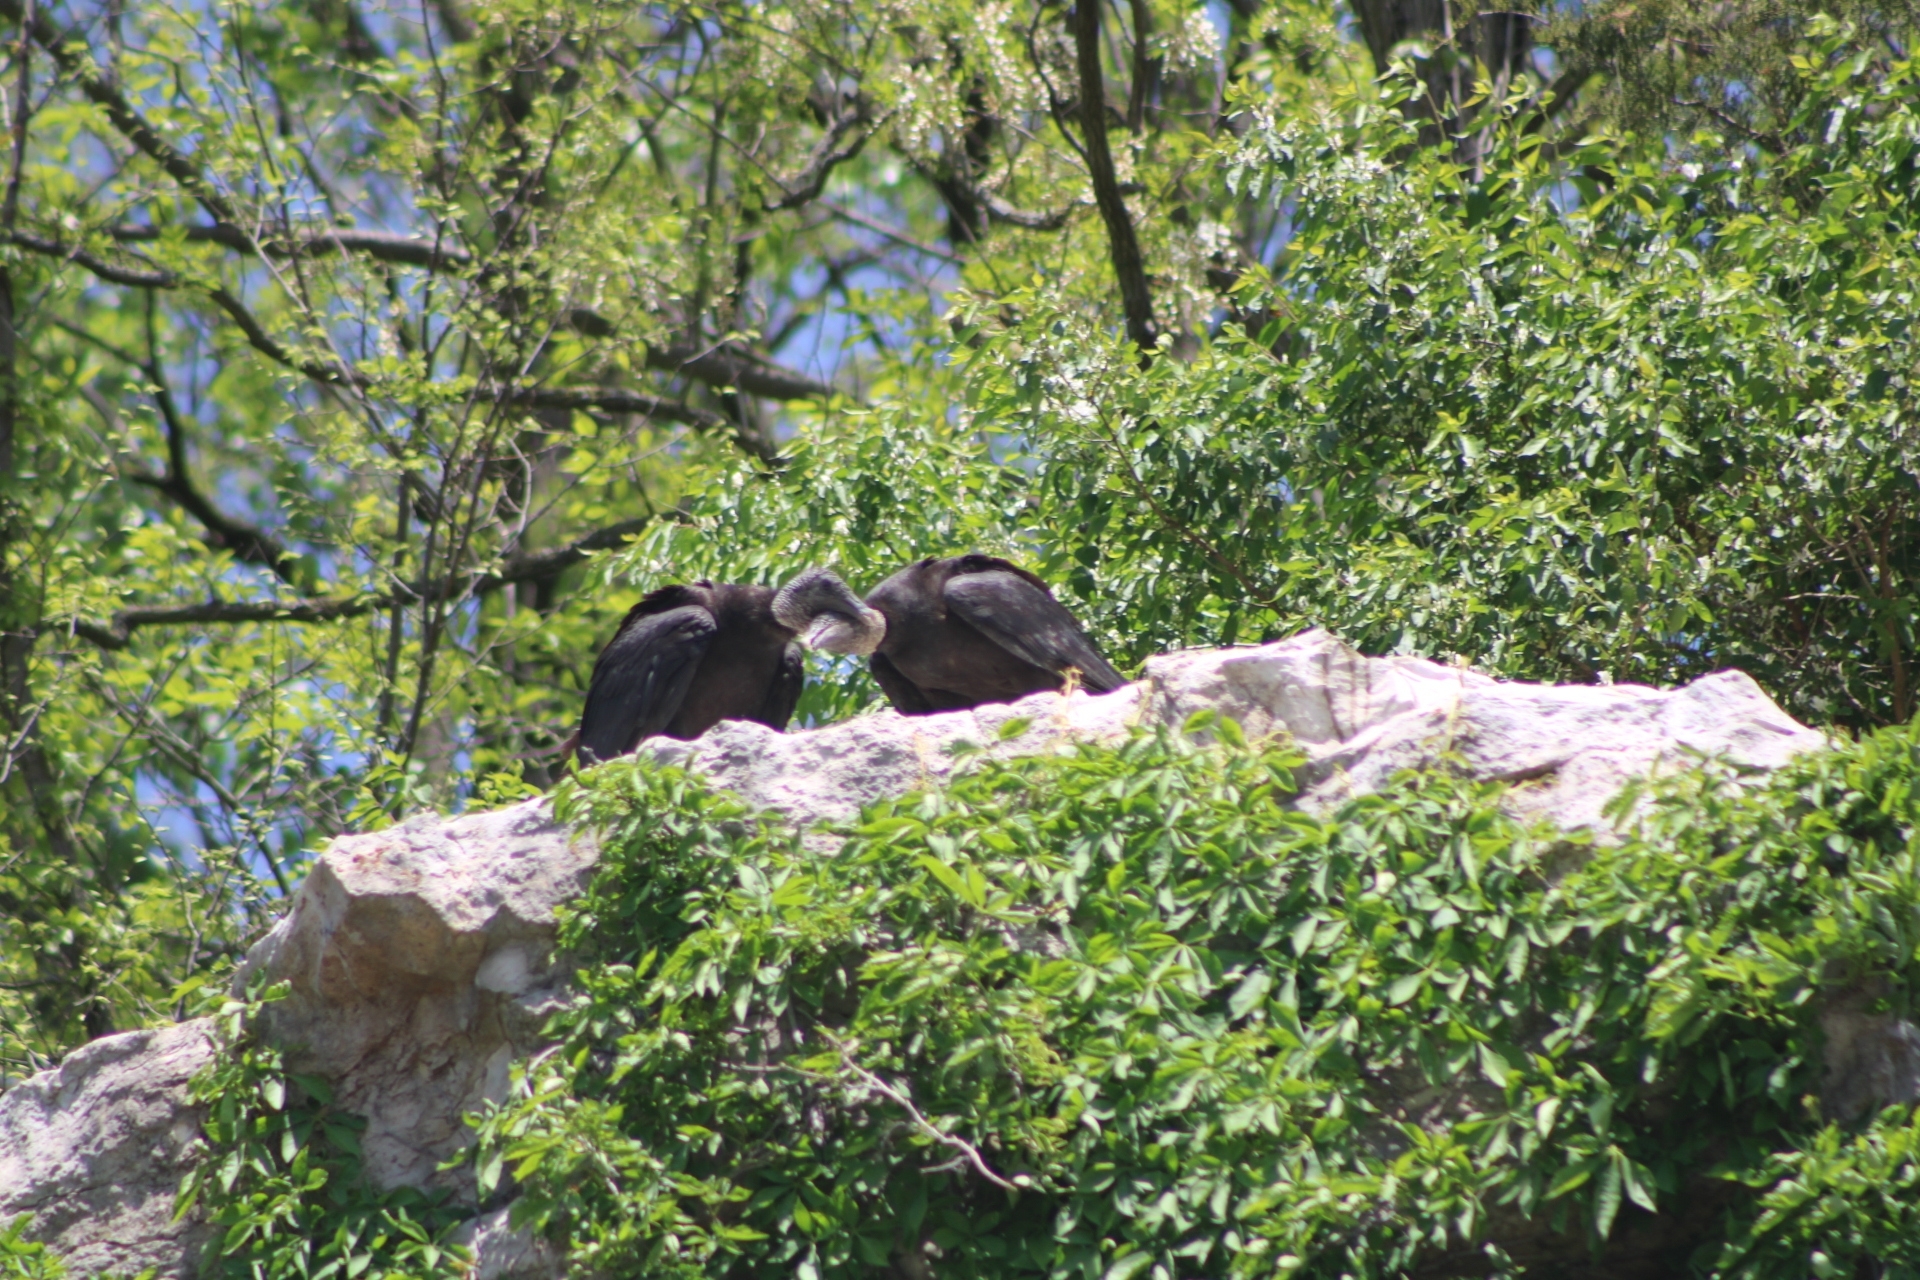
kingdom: Animalia
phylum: Chordata
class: Aves
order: Accipitriformes
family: Cathartidae
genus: Coragyps
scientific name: Coragyps atratus
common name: Black vulture
